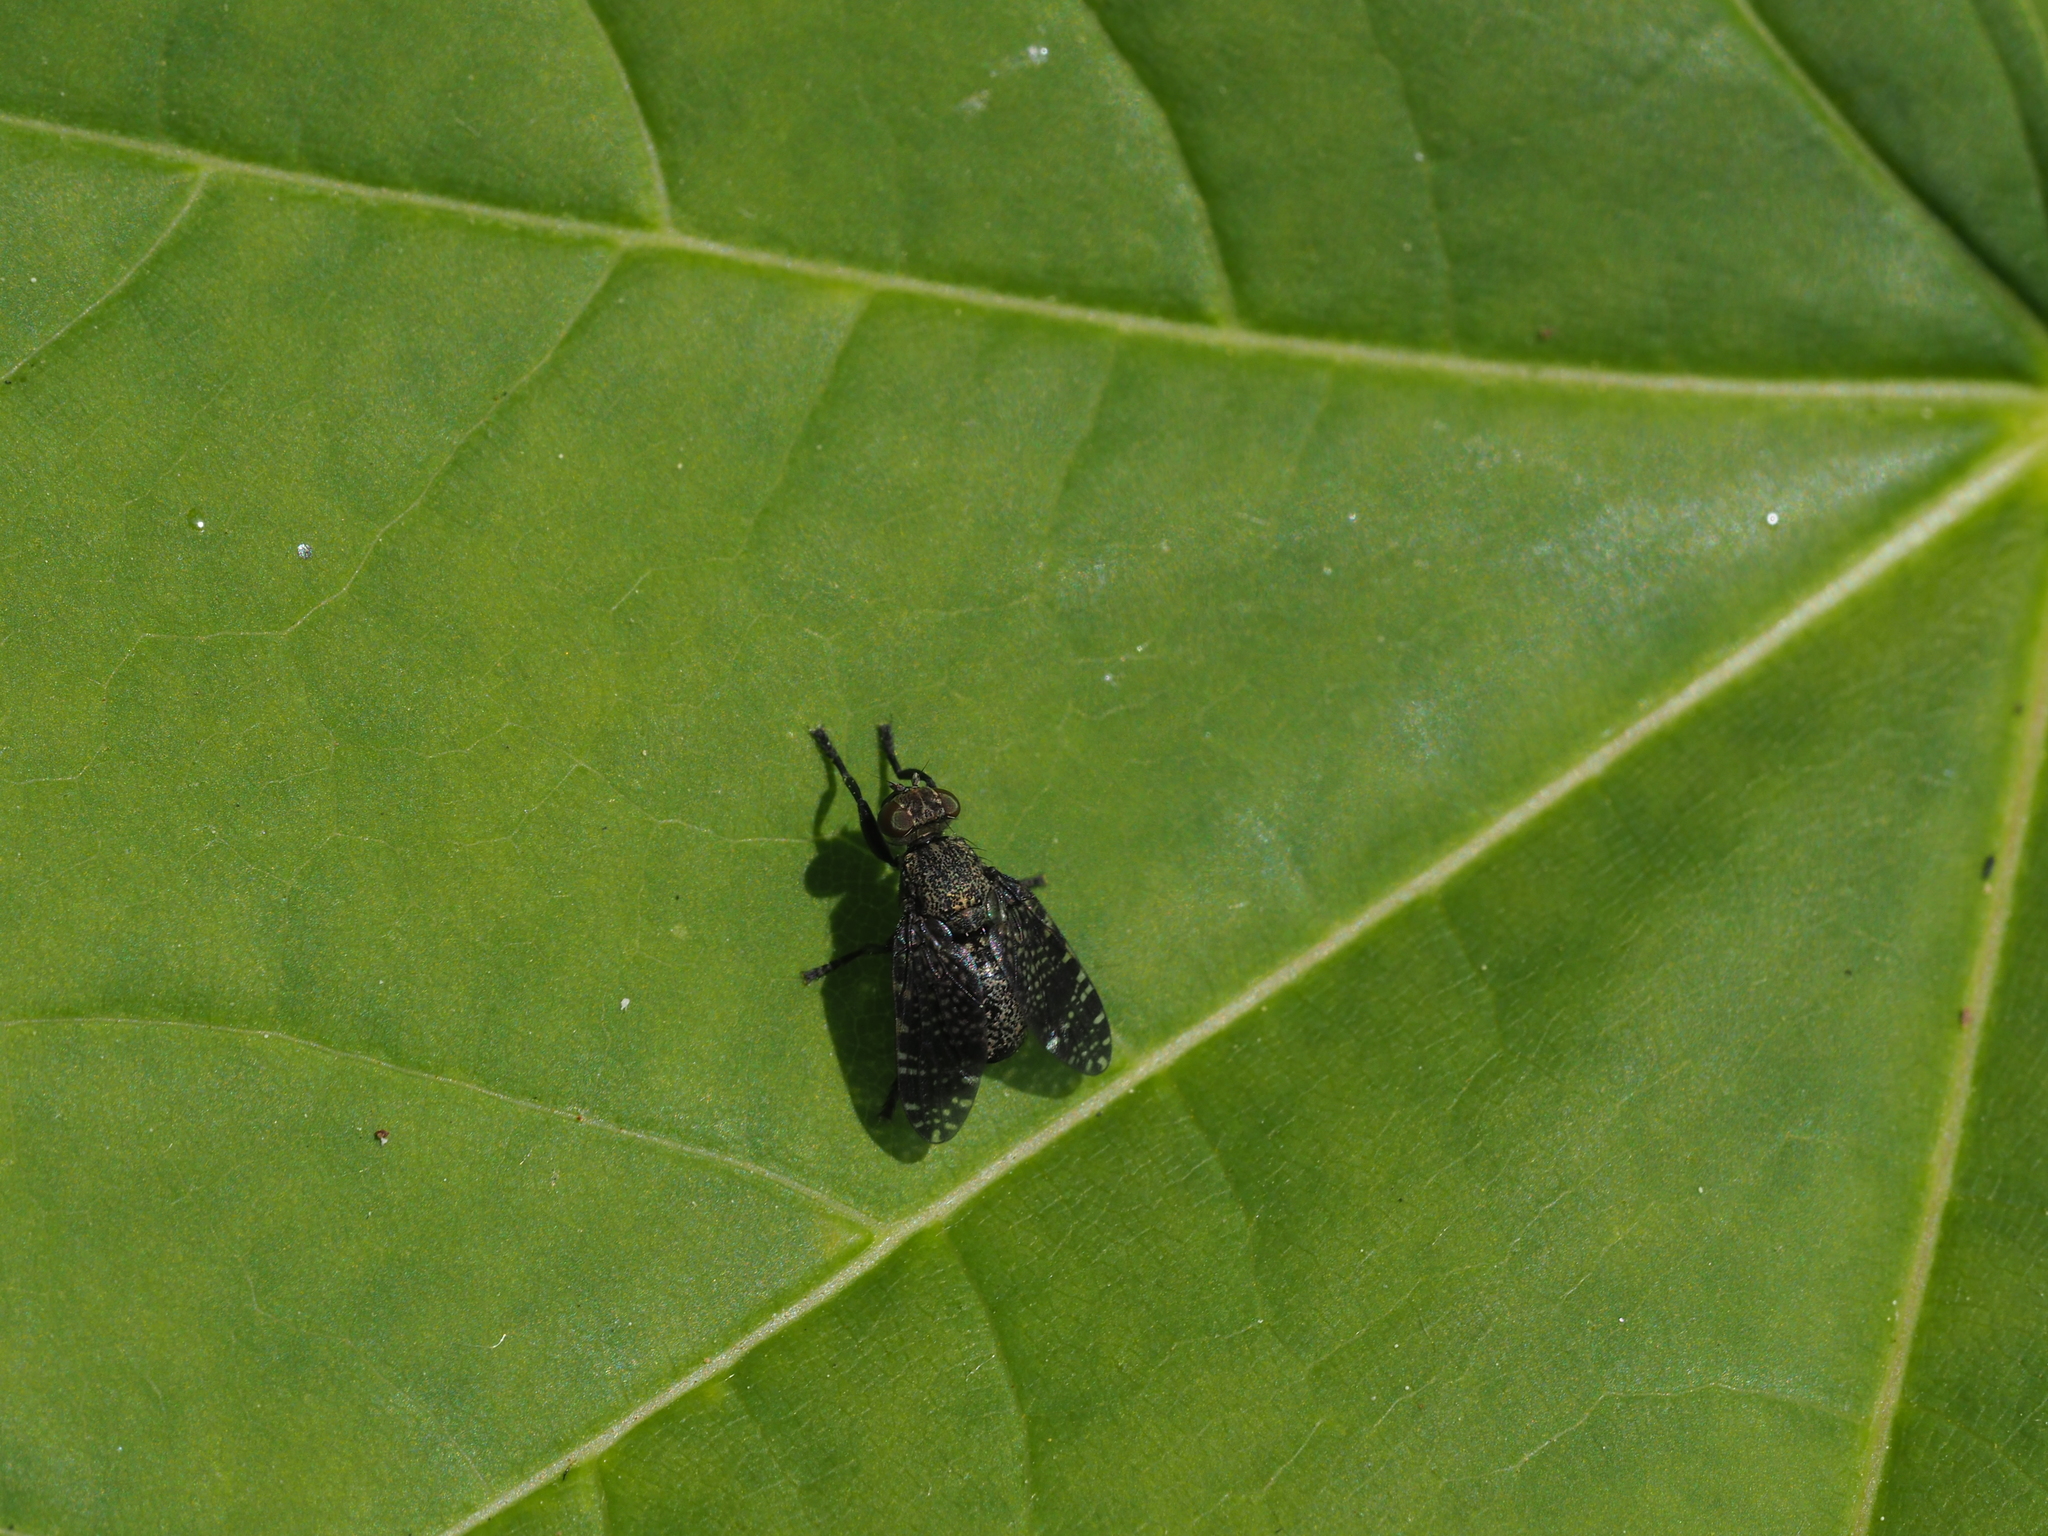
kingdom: Animalia
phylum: Arthropoda
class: Insecta
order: Diptera
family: Platystomatidae
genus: Platystoma
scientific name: Platystoma seminationis
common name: Fly
